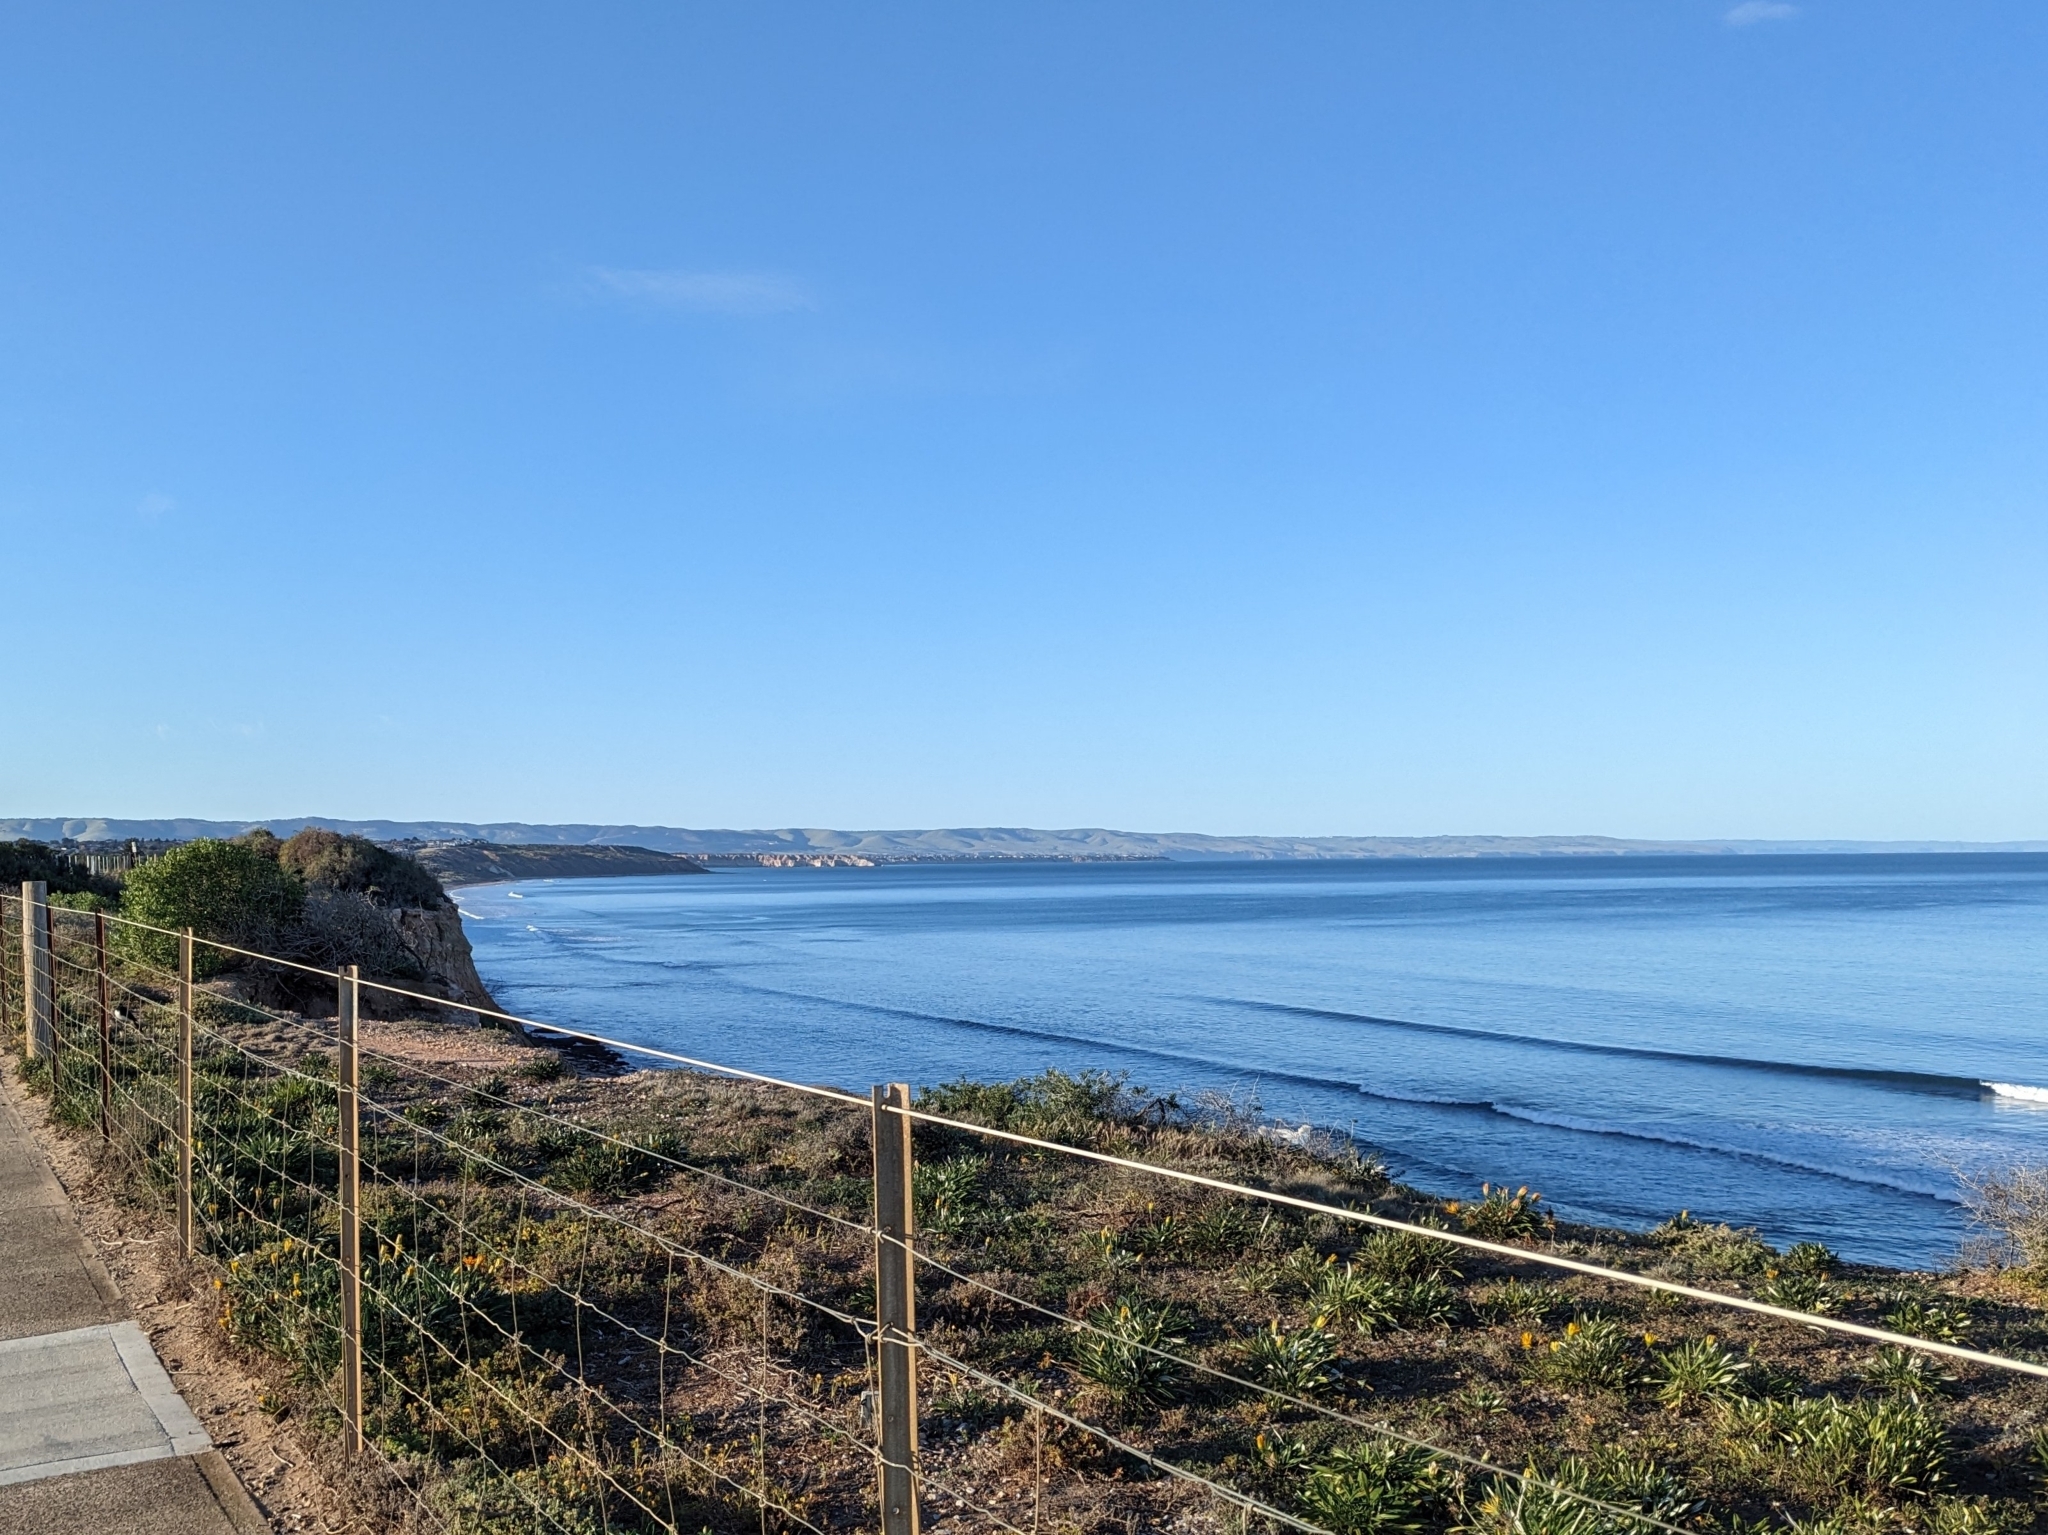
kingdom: Animalia
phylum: Chordata
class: Aves
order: Passeriformes
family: Rhipiduridae
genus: Rhipidura
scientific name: Rhipidura leucophrys
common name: Willie wagtail
